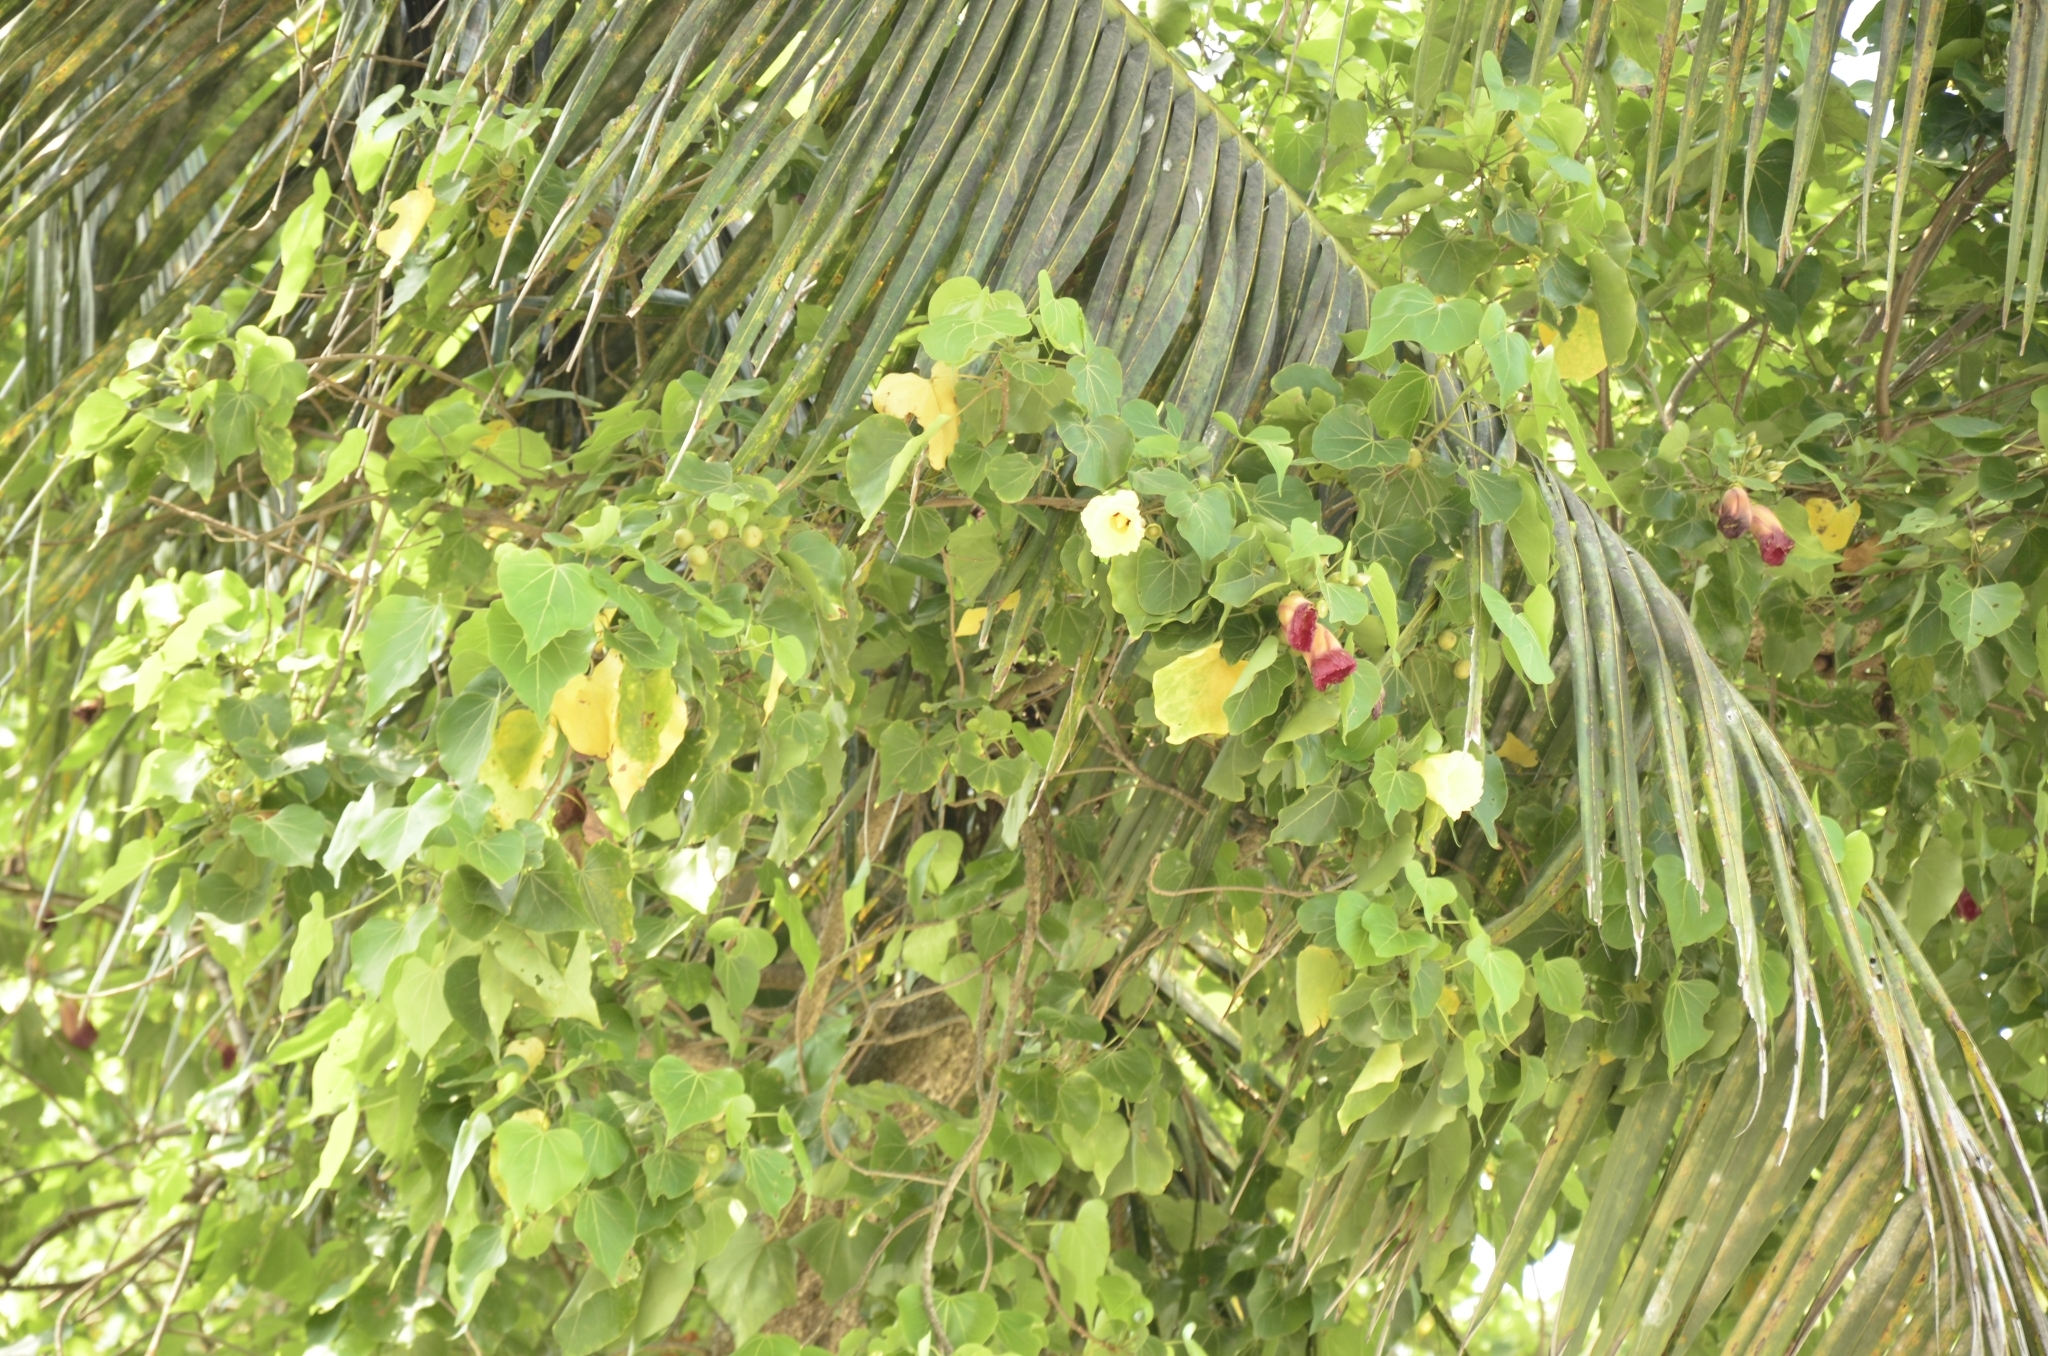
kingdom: Plantae
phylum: Tracheophyta
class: Magnoliopsida
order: Malvales
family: Malvaceae
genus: Thespesia
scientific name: Thespesia populnea
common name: Seaside mahoe
